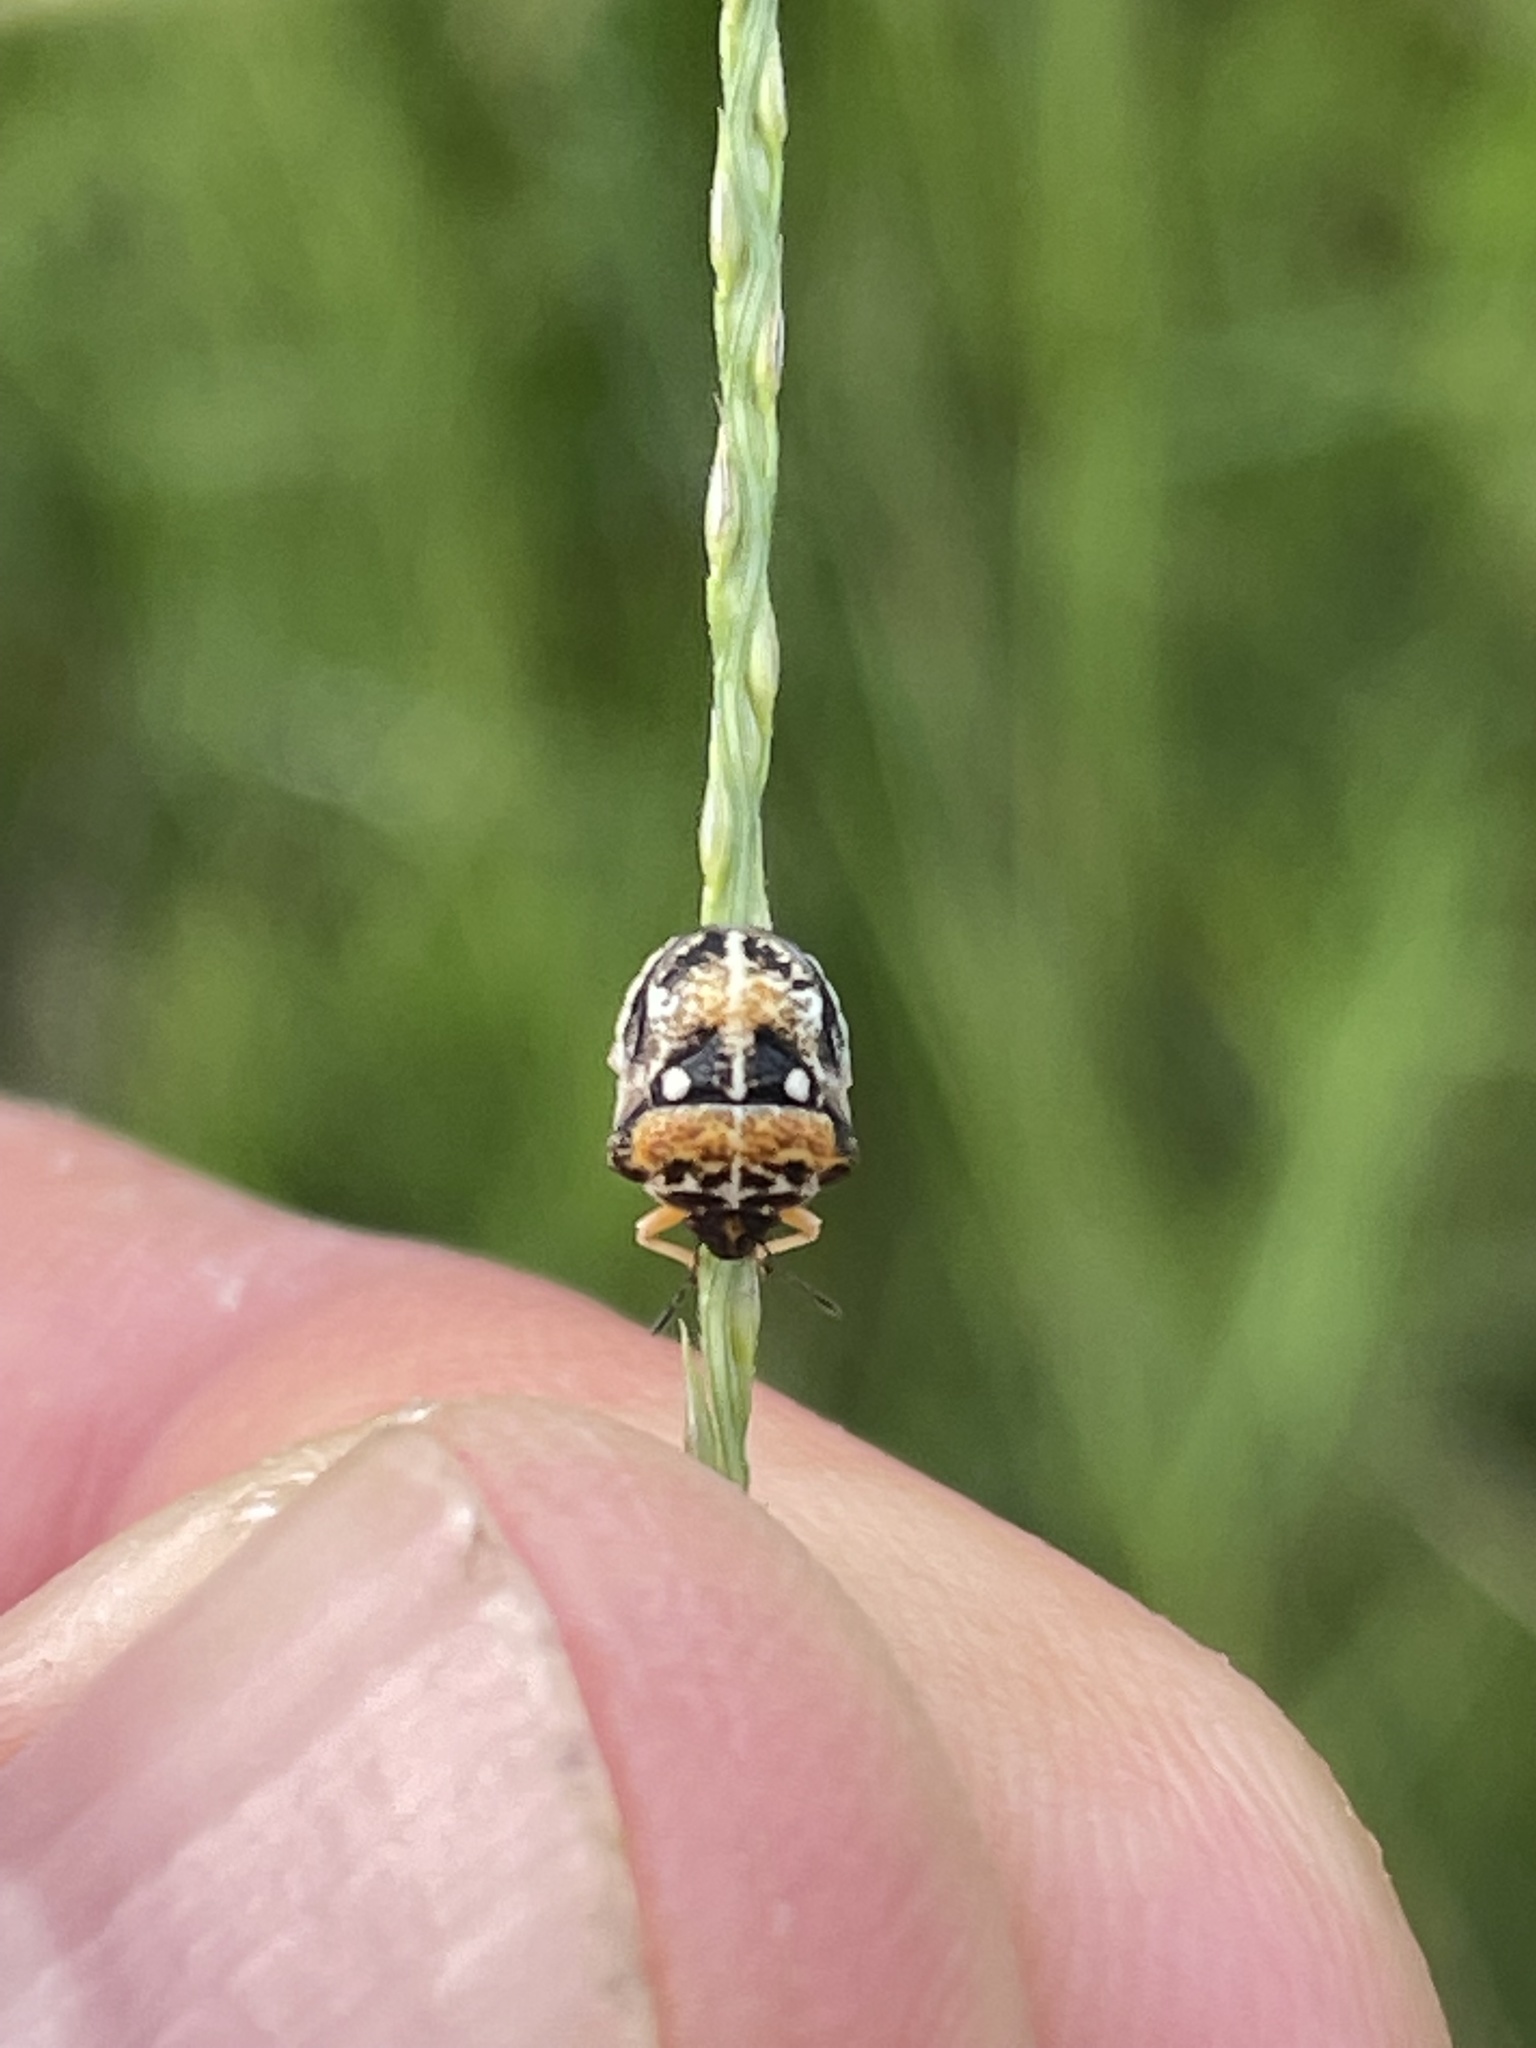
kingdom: Animalia
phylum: Arthropoda
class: Insecta
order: Hemiptera
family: Pentatomidae
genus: Bolbocoris
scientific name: Bolbocoris rufus
